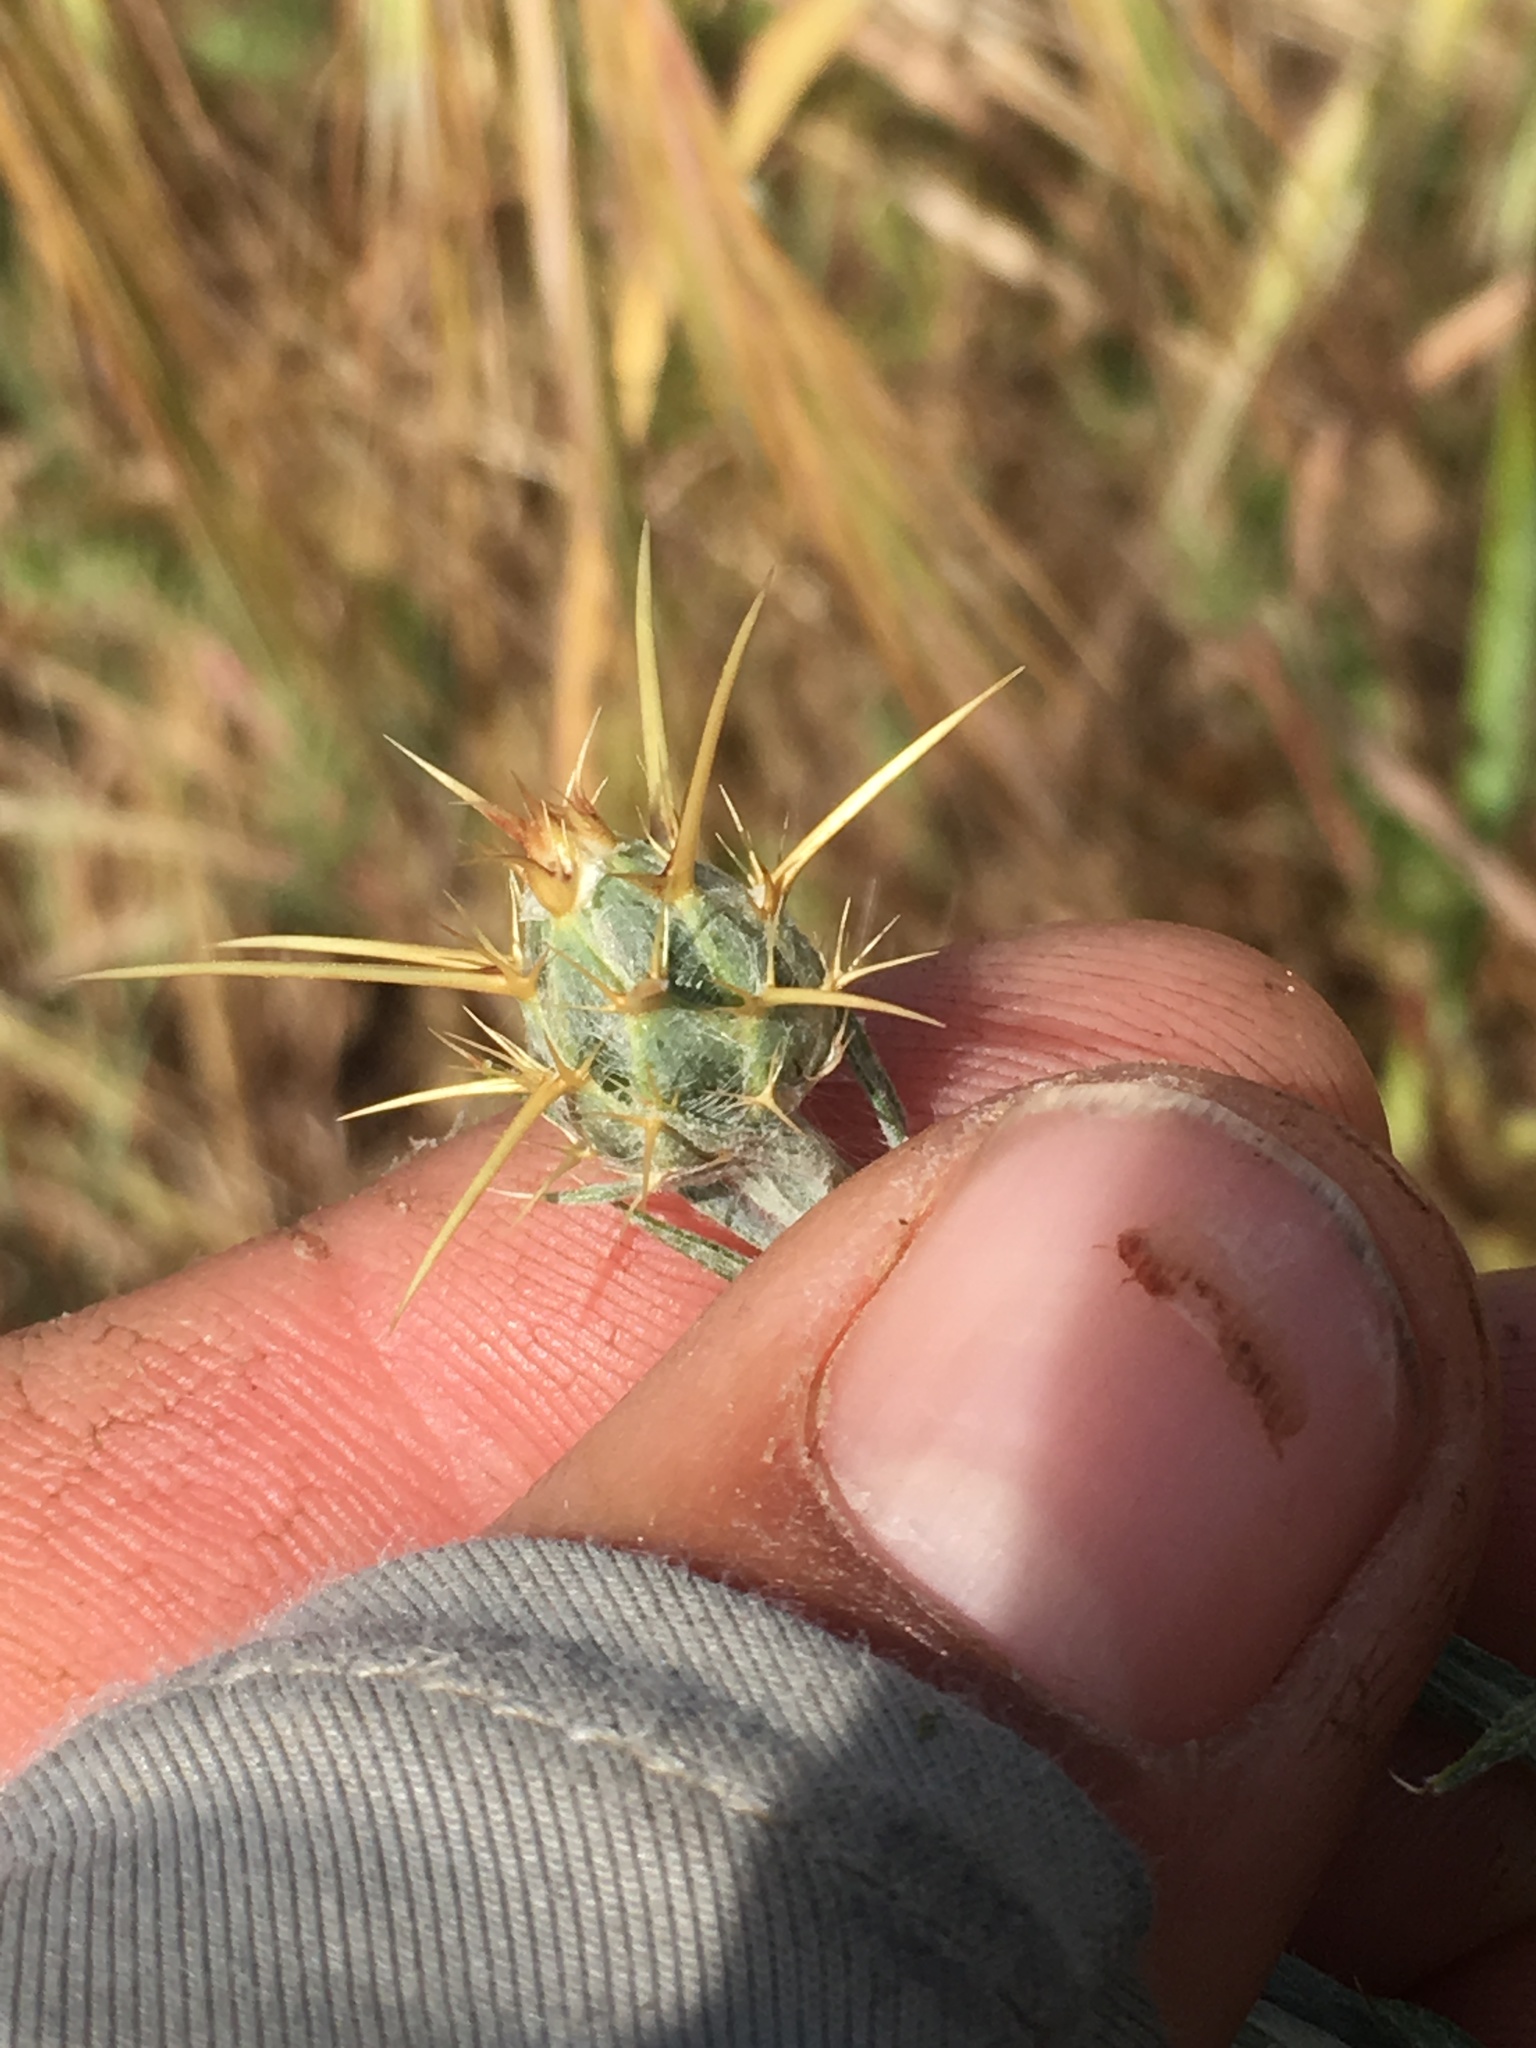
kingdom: Plantae
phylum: Tracheophyta
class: Magnoliopsida
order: Asterales
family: Asteraceae
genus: Centaurea
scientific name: Centaurea solstitialis
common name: Yellow star-thistle
